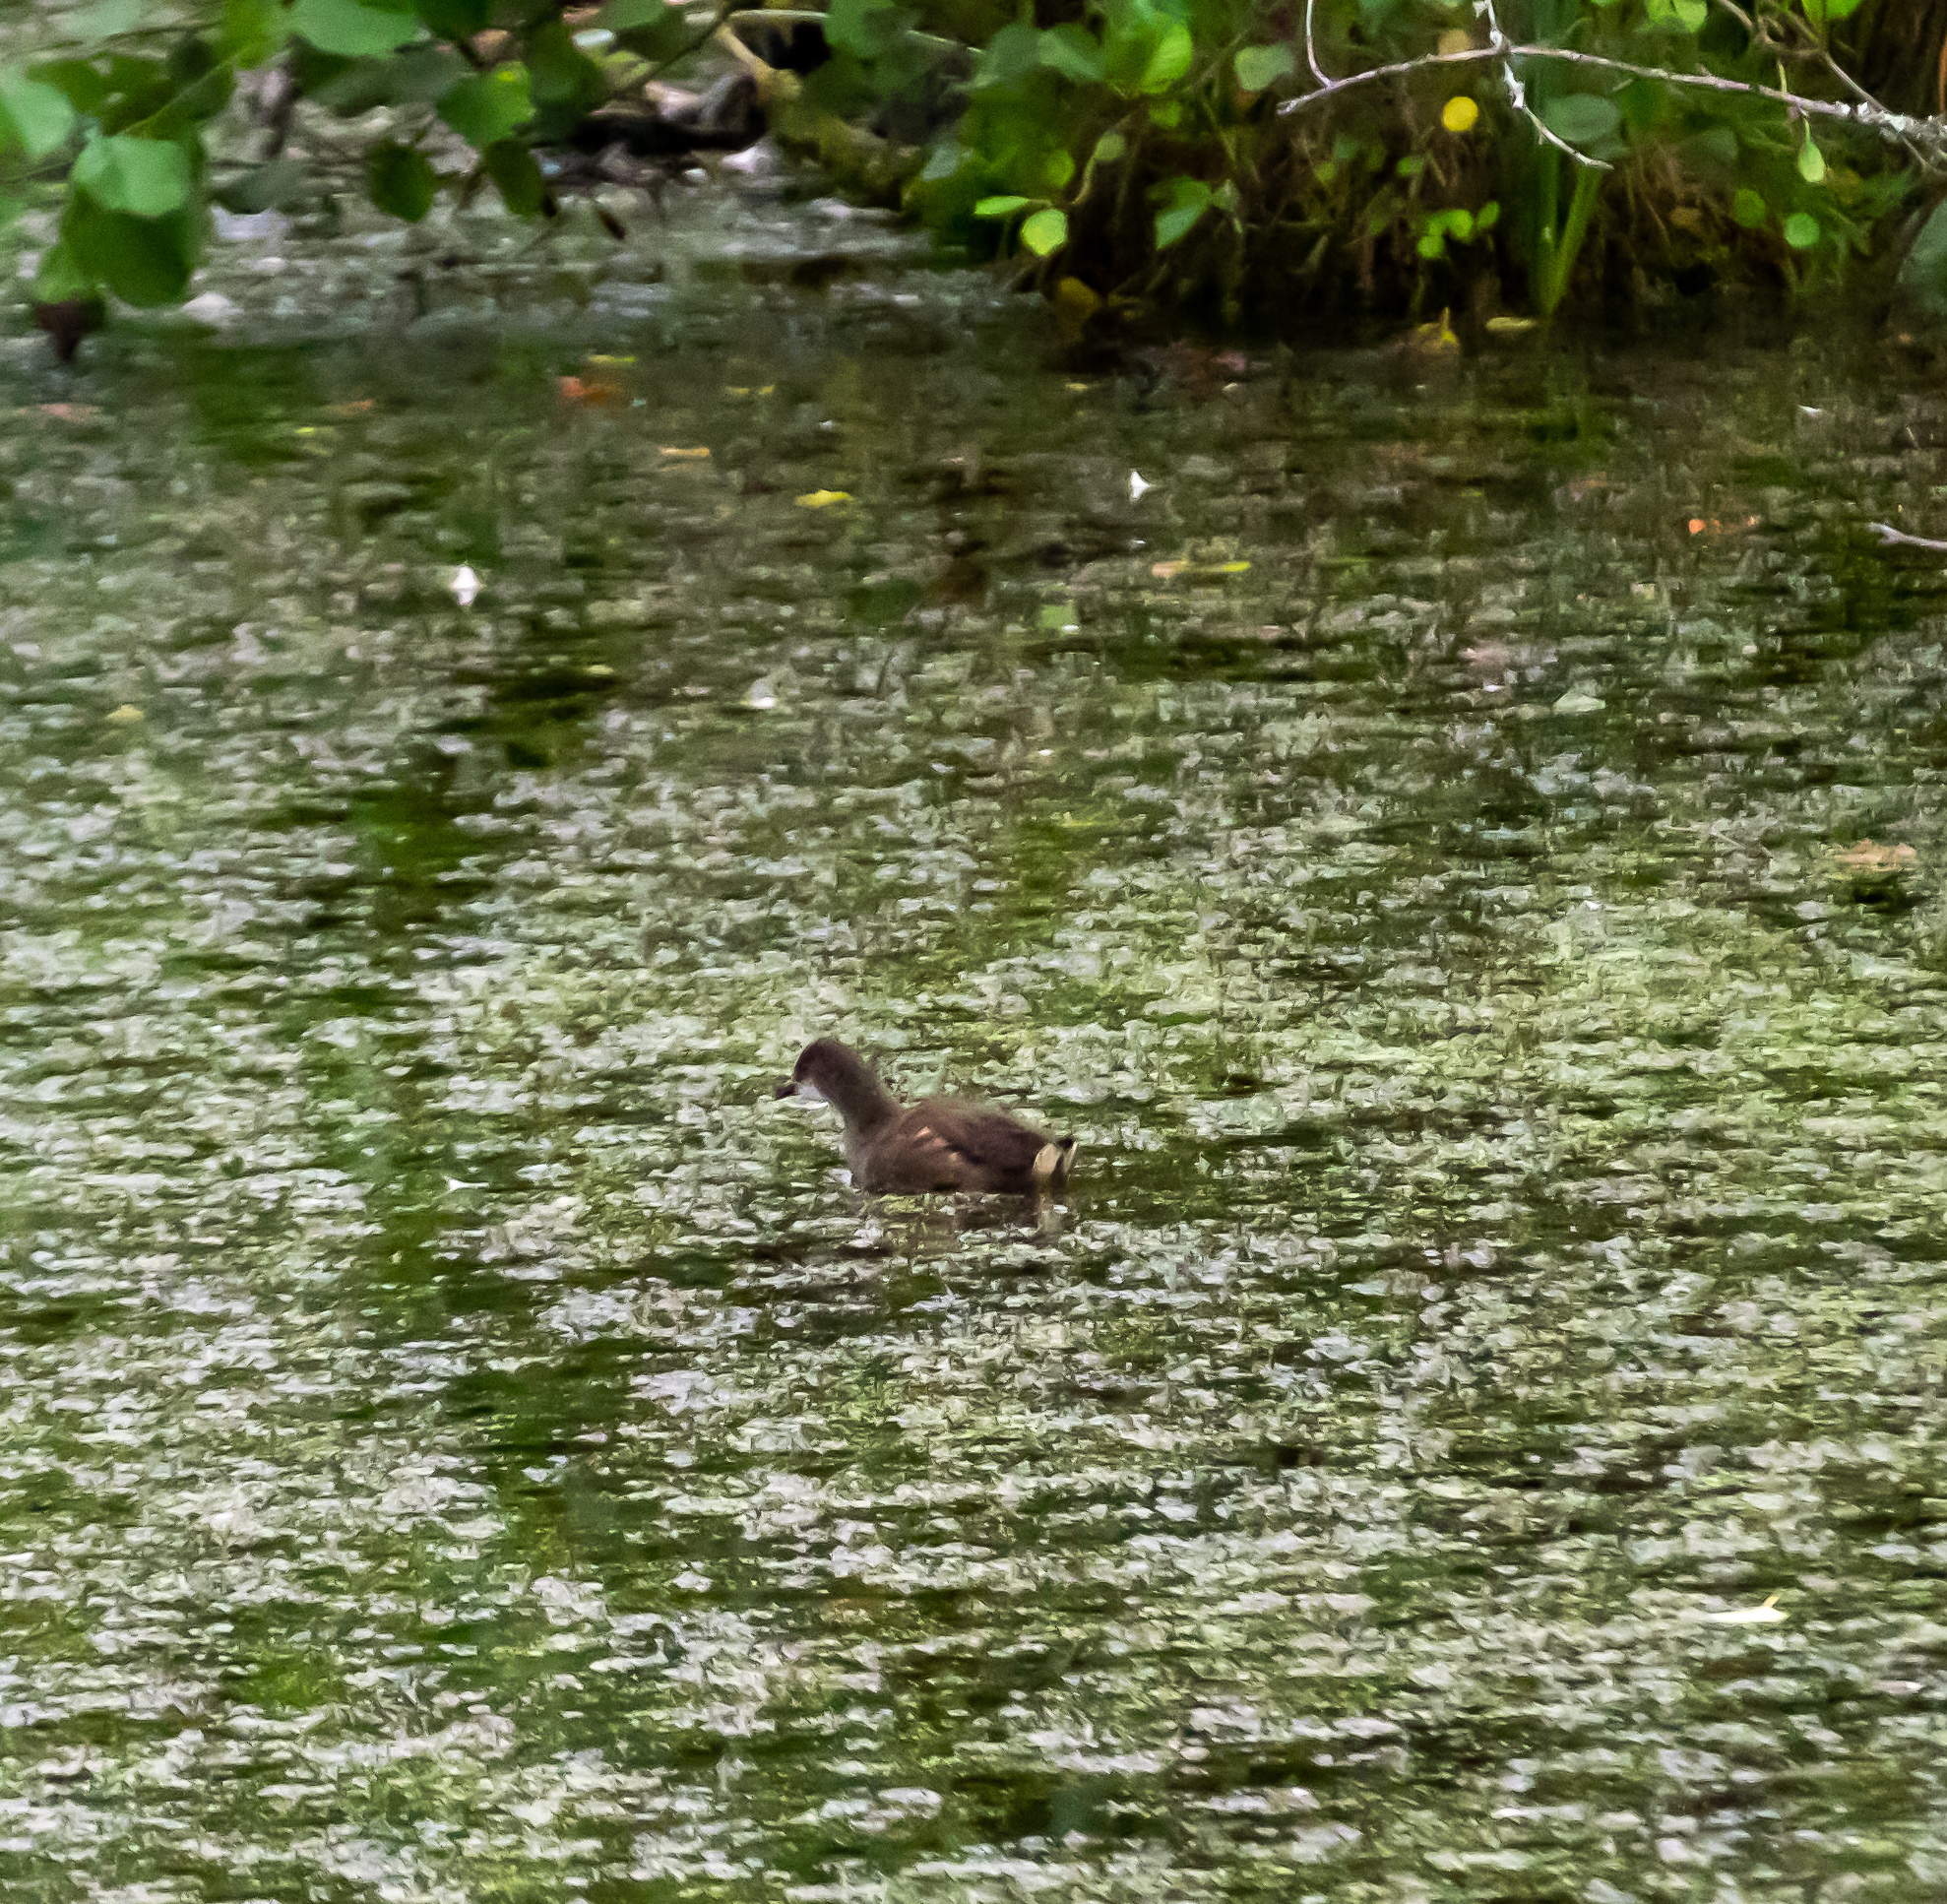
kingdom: Animalia
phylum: Chordata
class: Aves
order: Gruiformes
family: Rallidae
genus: Gallinula
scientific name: Gallinula chloropus
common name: Common moorhen
